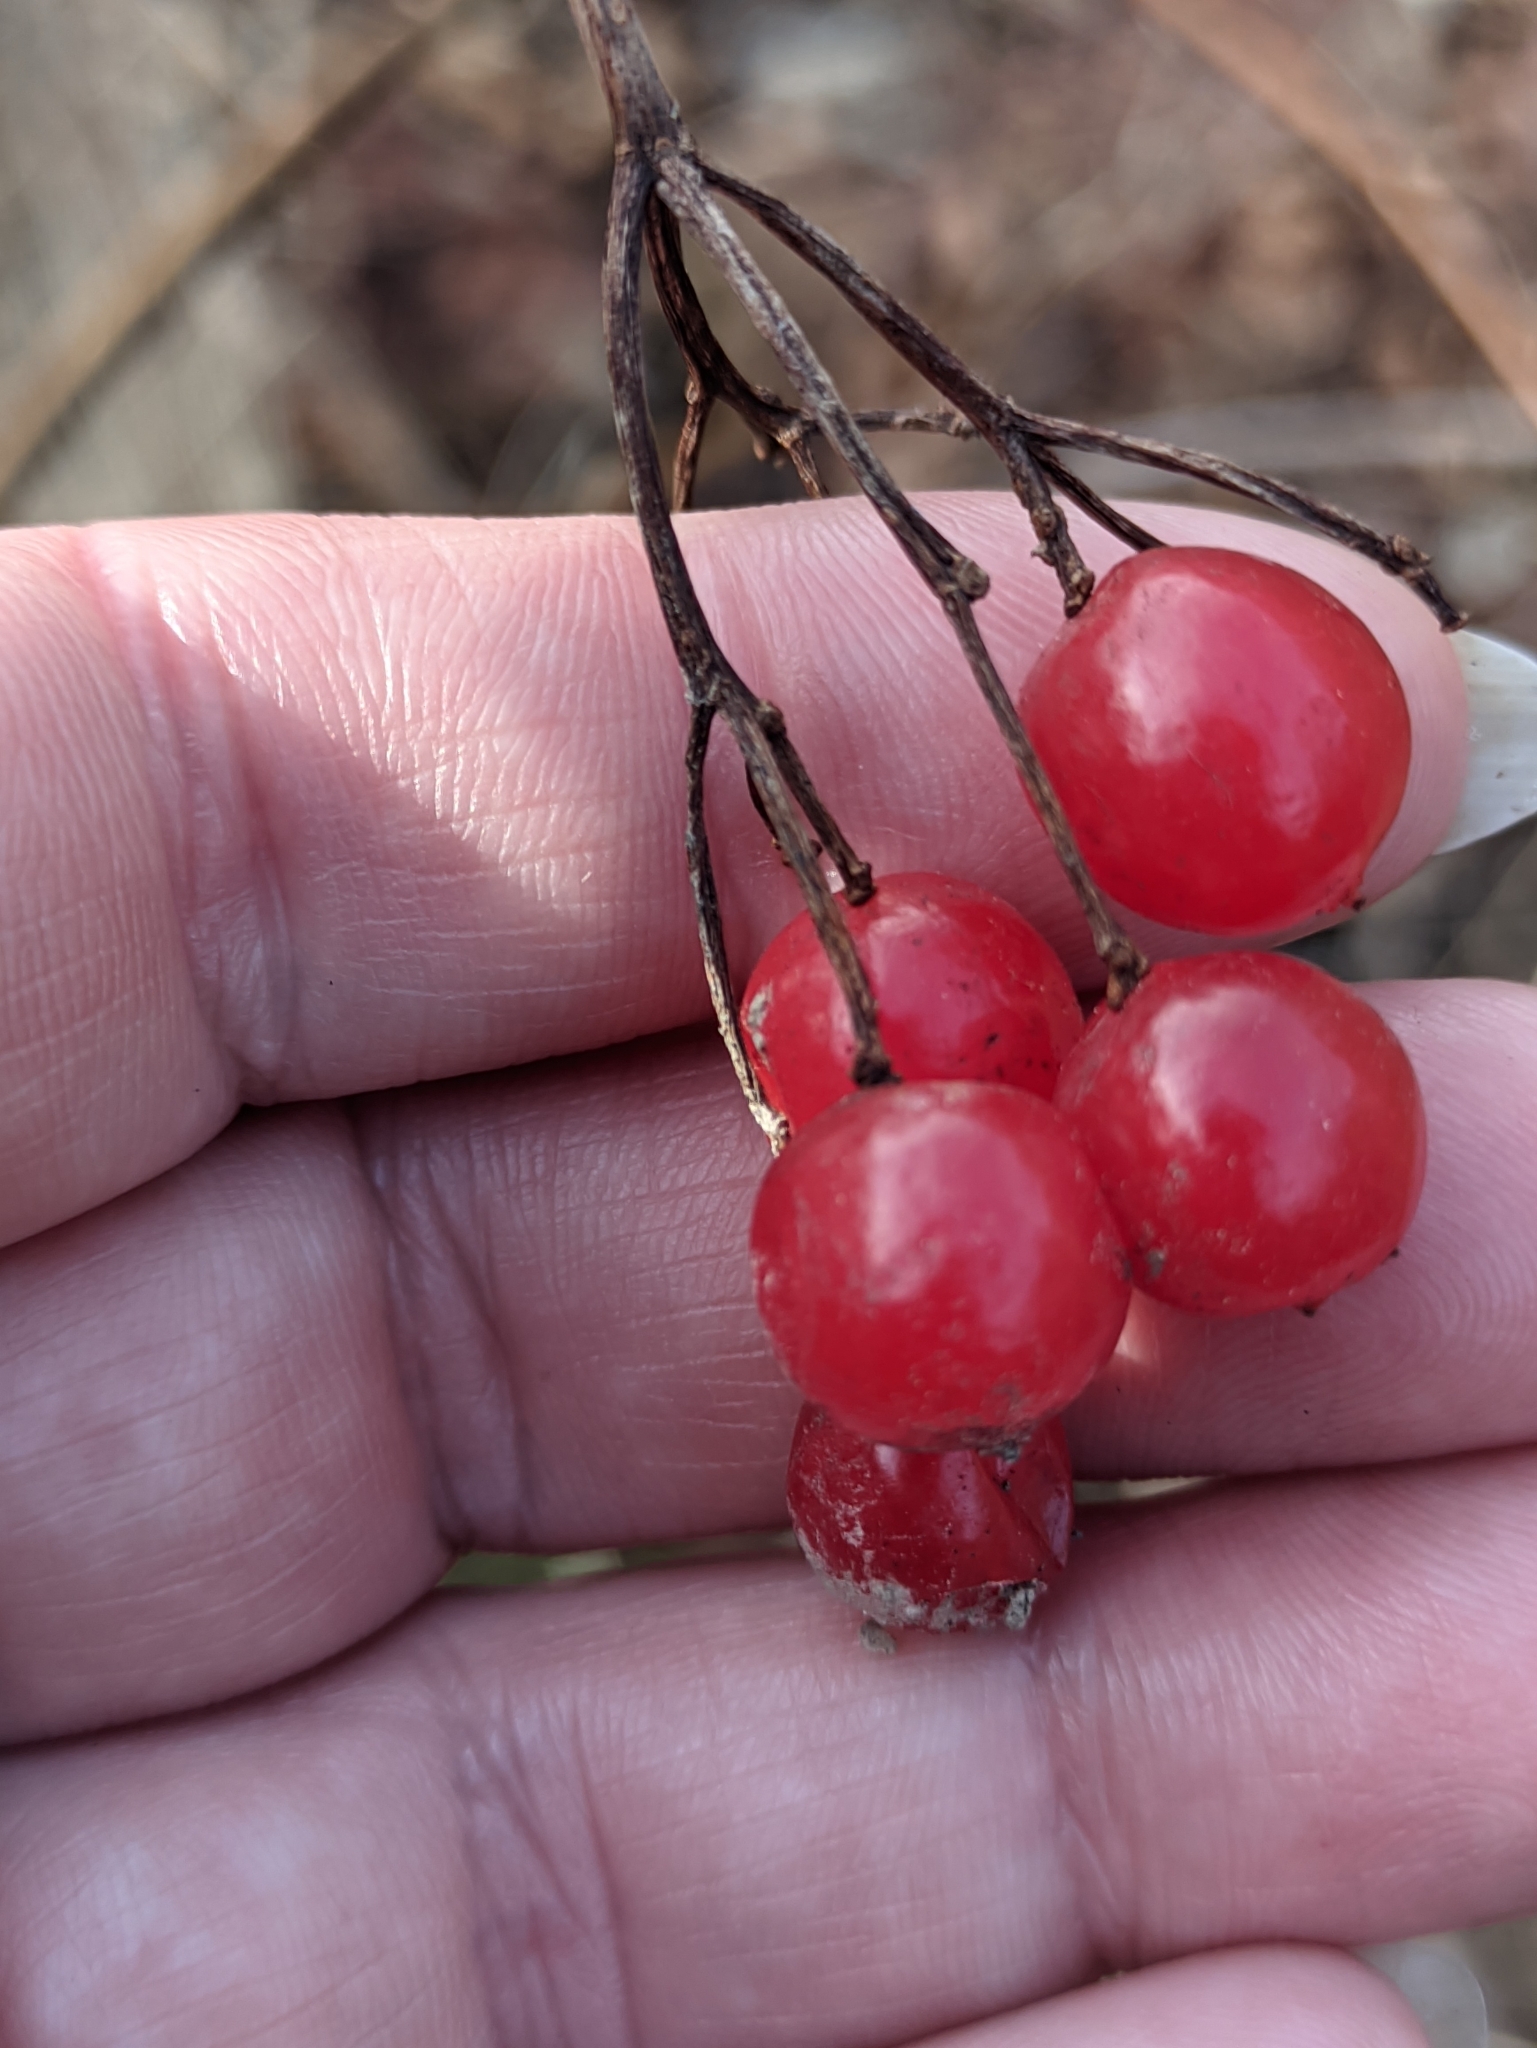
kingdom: Plantae
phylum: Tracheophyta
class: Magnoliopsida
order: Dipsacales
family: Viburnaceae
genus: Viburnum
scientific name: Viburnum opulus
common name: Guelder-rose
